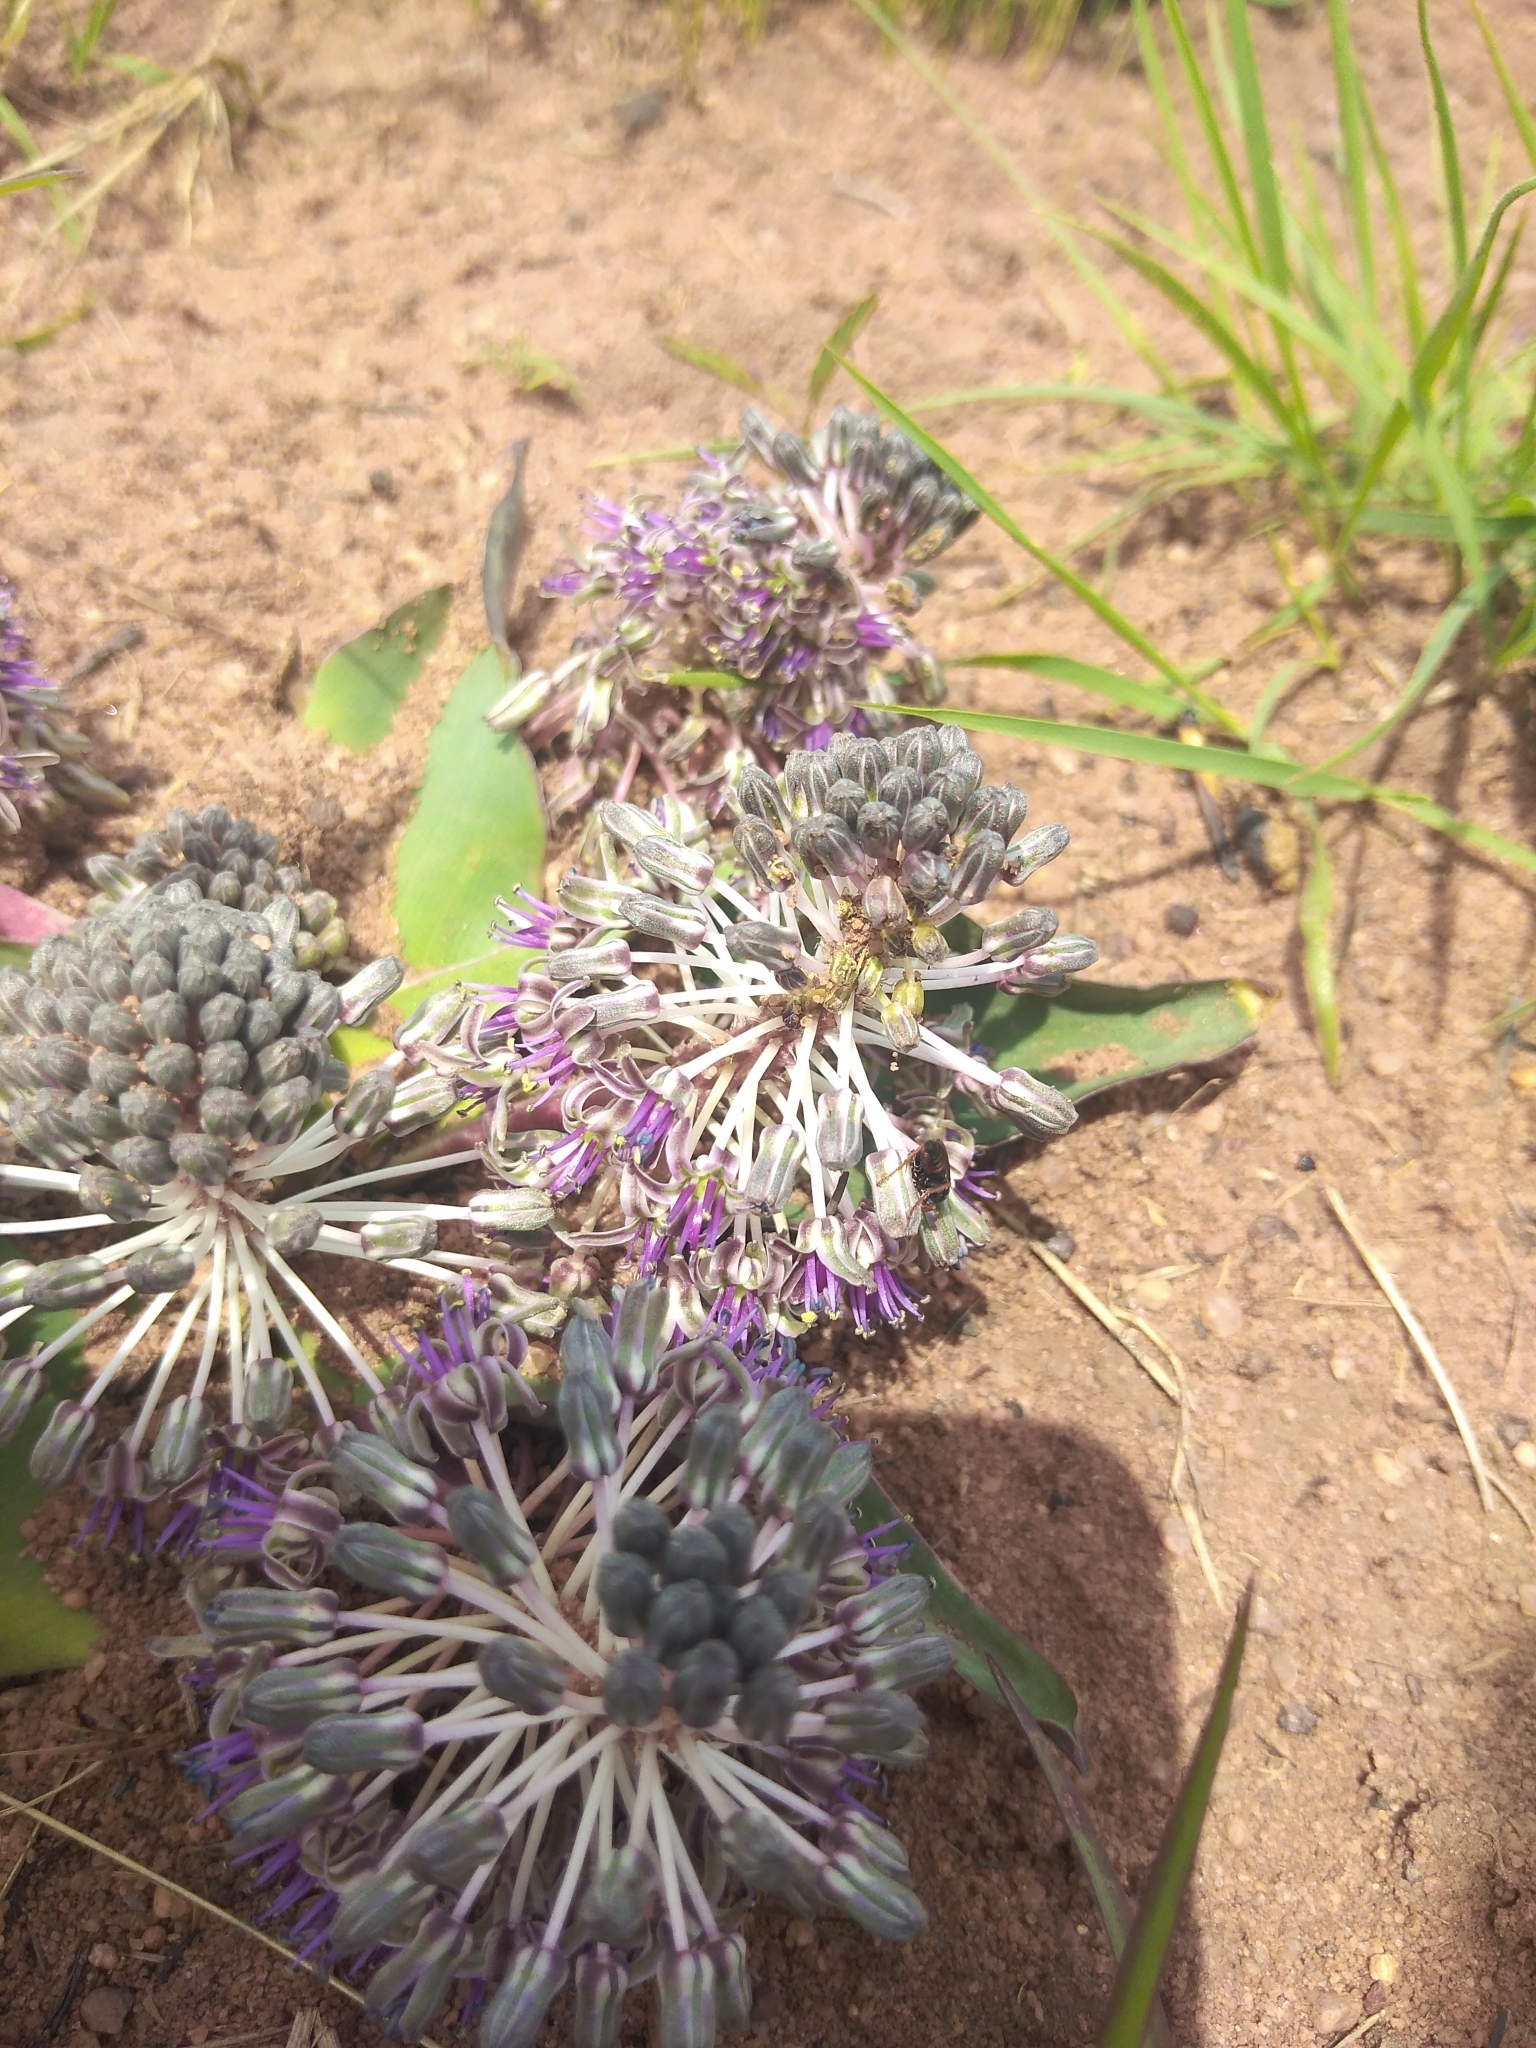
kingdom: Plantae
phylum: Tracheophyta
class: Liliopsida
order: Asparagales
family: Asparagaceae
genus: Ledebouria
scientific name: Ledebouria ovatifolia
